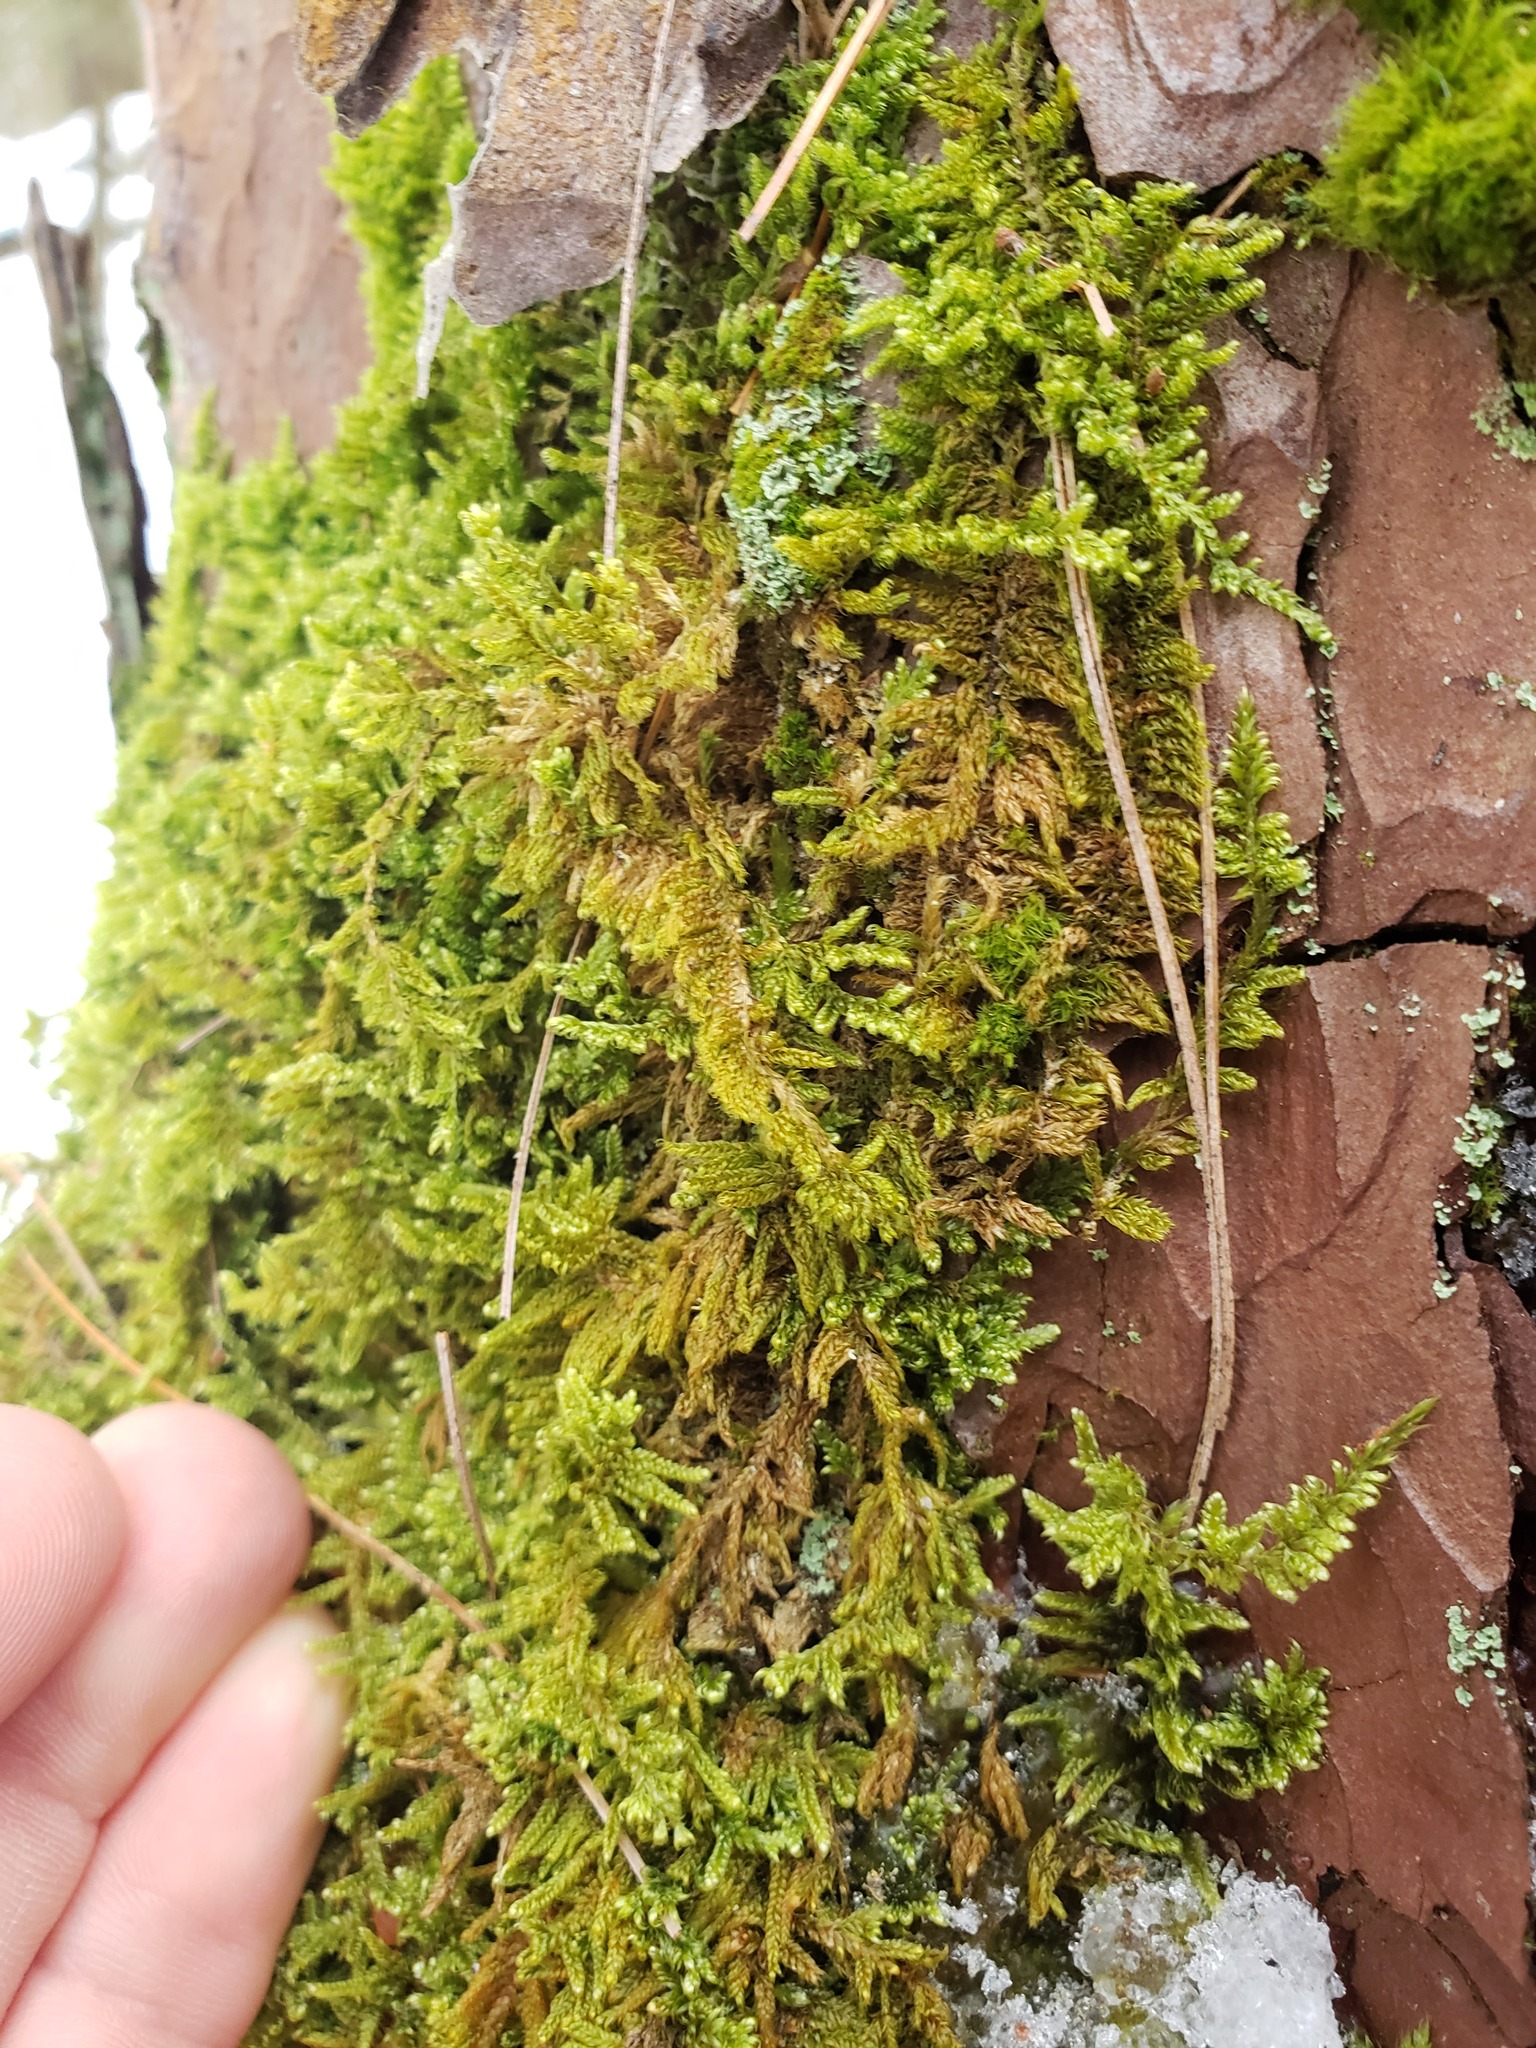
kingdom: Plantae
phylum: Bryophyta
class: Bryopsida
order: Hypnales
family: Callicladiaceae
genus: Callicladium
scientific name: Callicladium imponens
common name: Brocade moss
